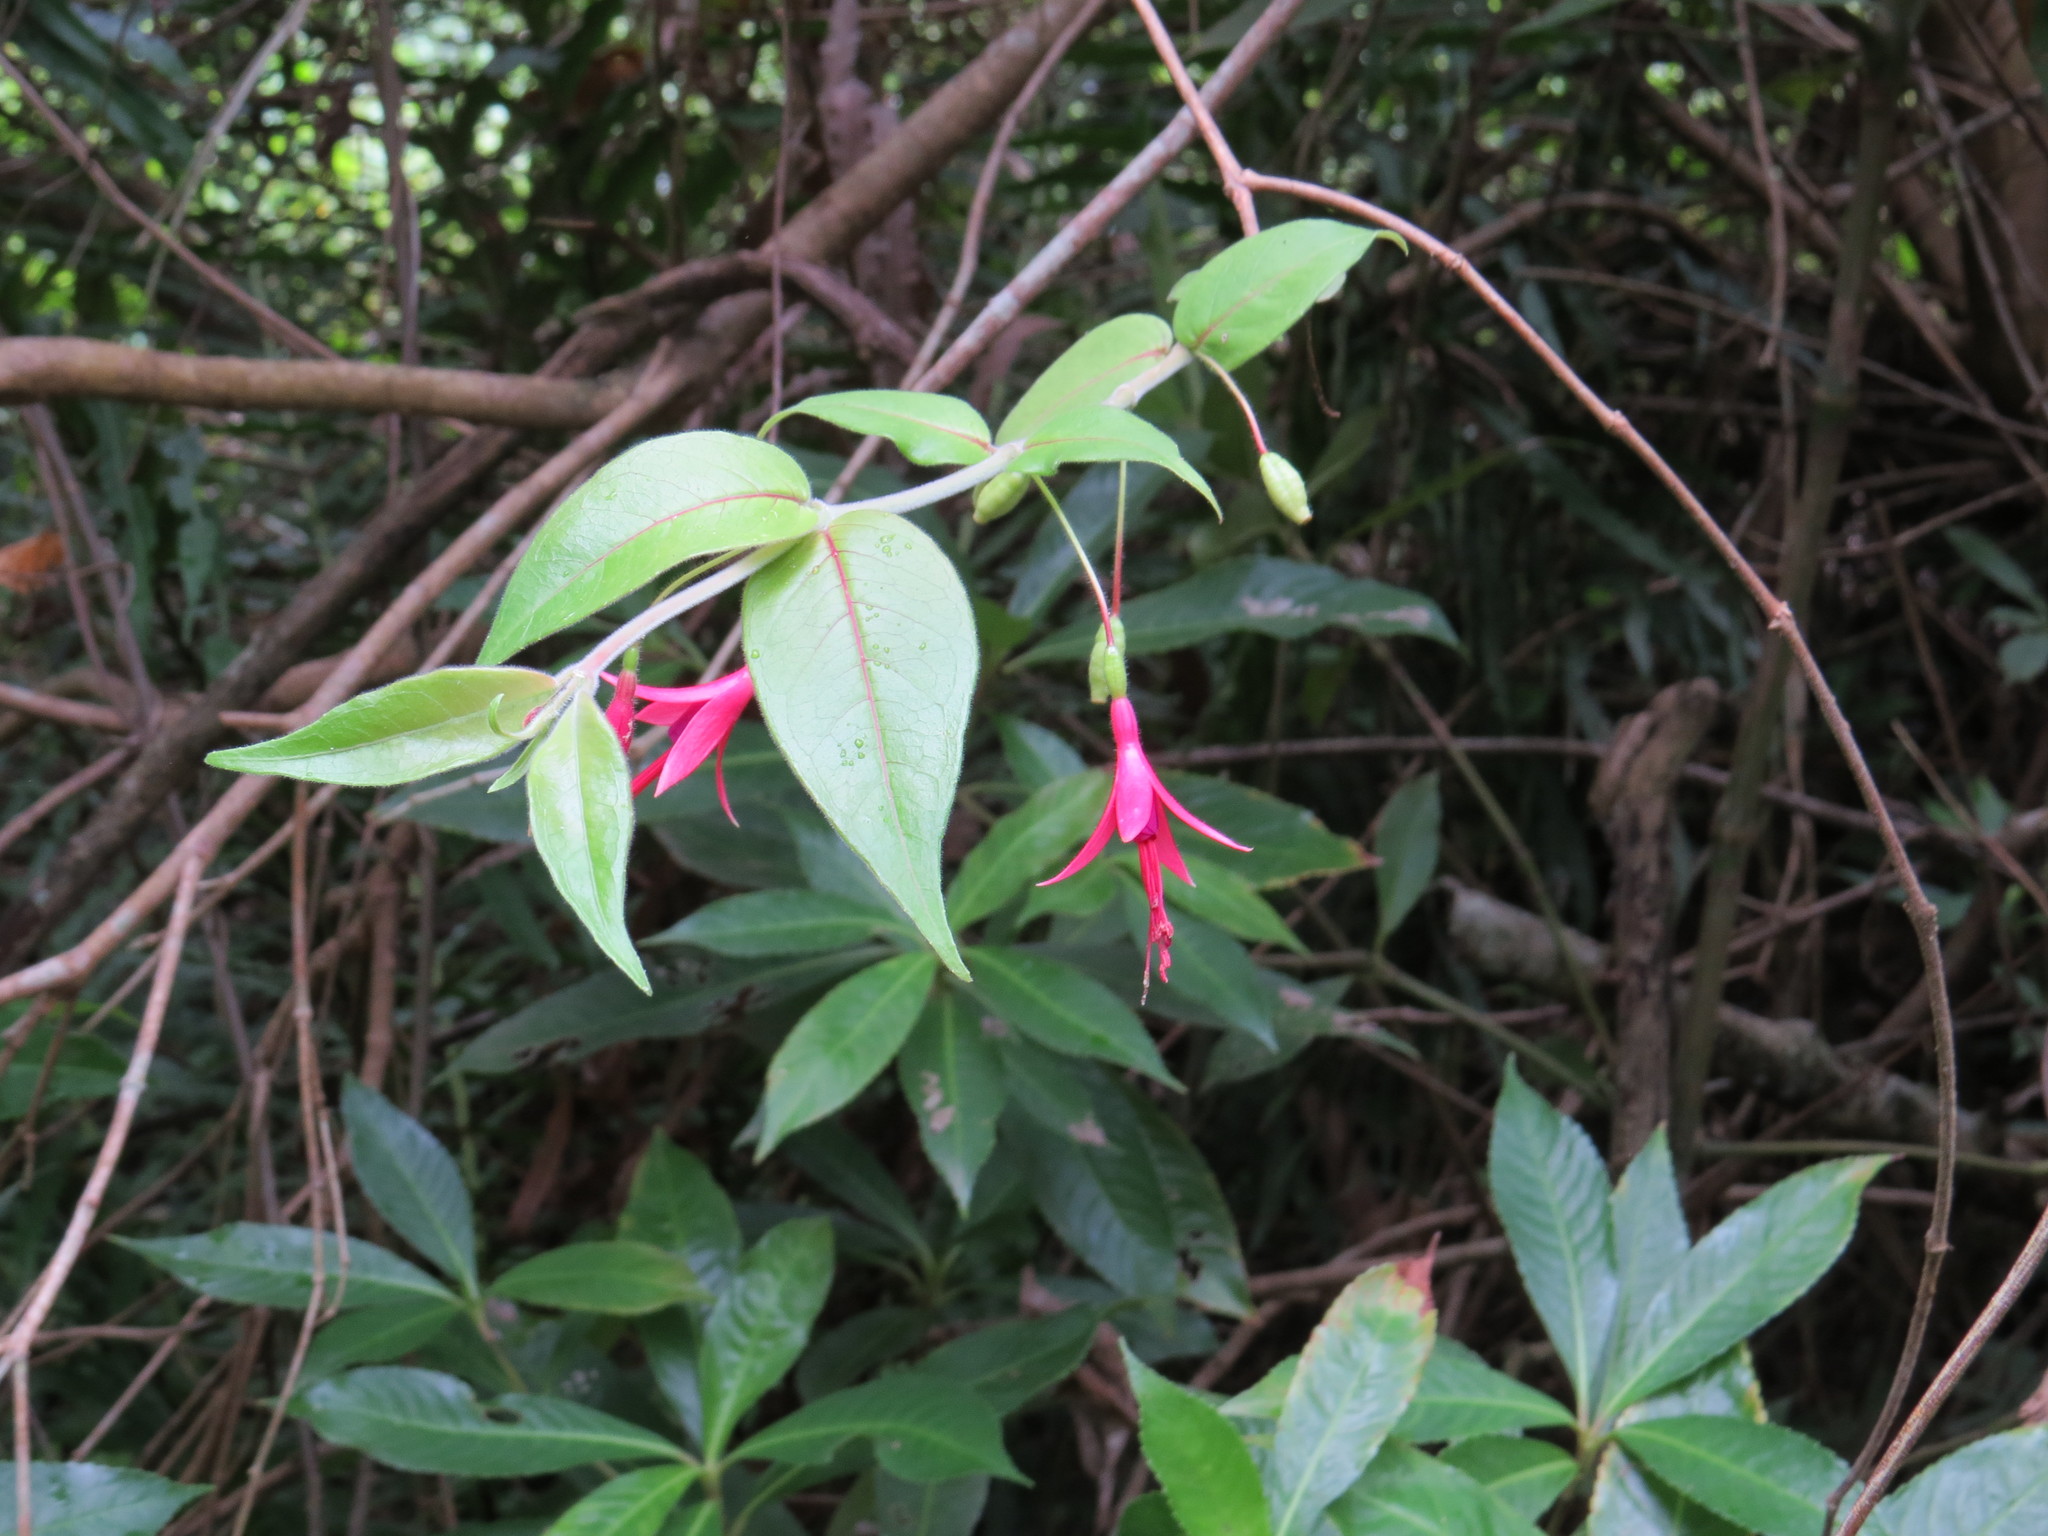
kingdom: Plantae
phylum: Tracheophyta
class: Magnoliopsida
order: Myrtales
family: Onagraceae
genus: Fuchsia
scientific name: Fuchsia regia
